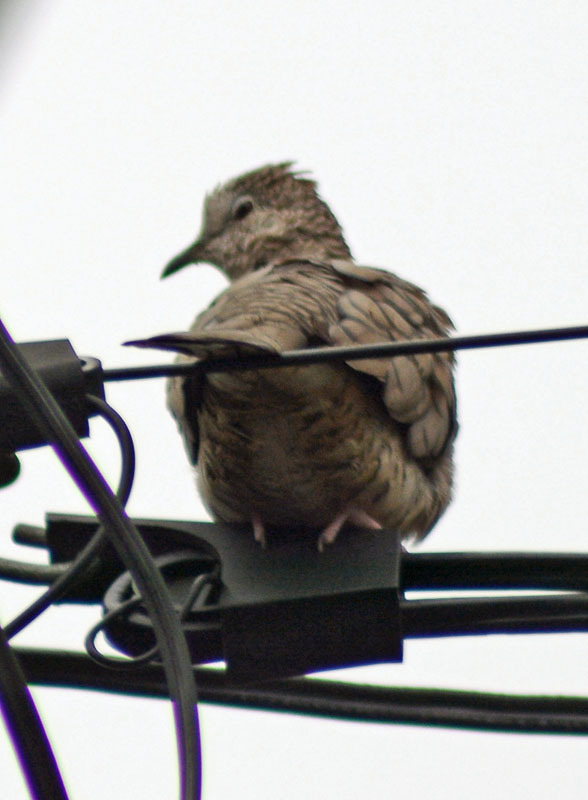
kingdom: Animalia
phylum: Chordata
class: Aves
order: Columbiformes
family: Columbidae
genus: Columbina
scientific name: Columbina inca
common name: Inca dove
